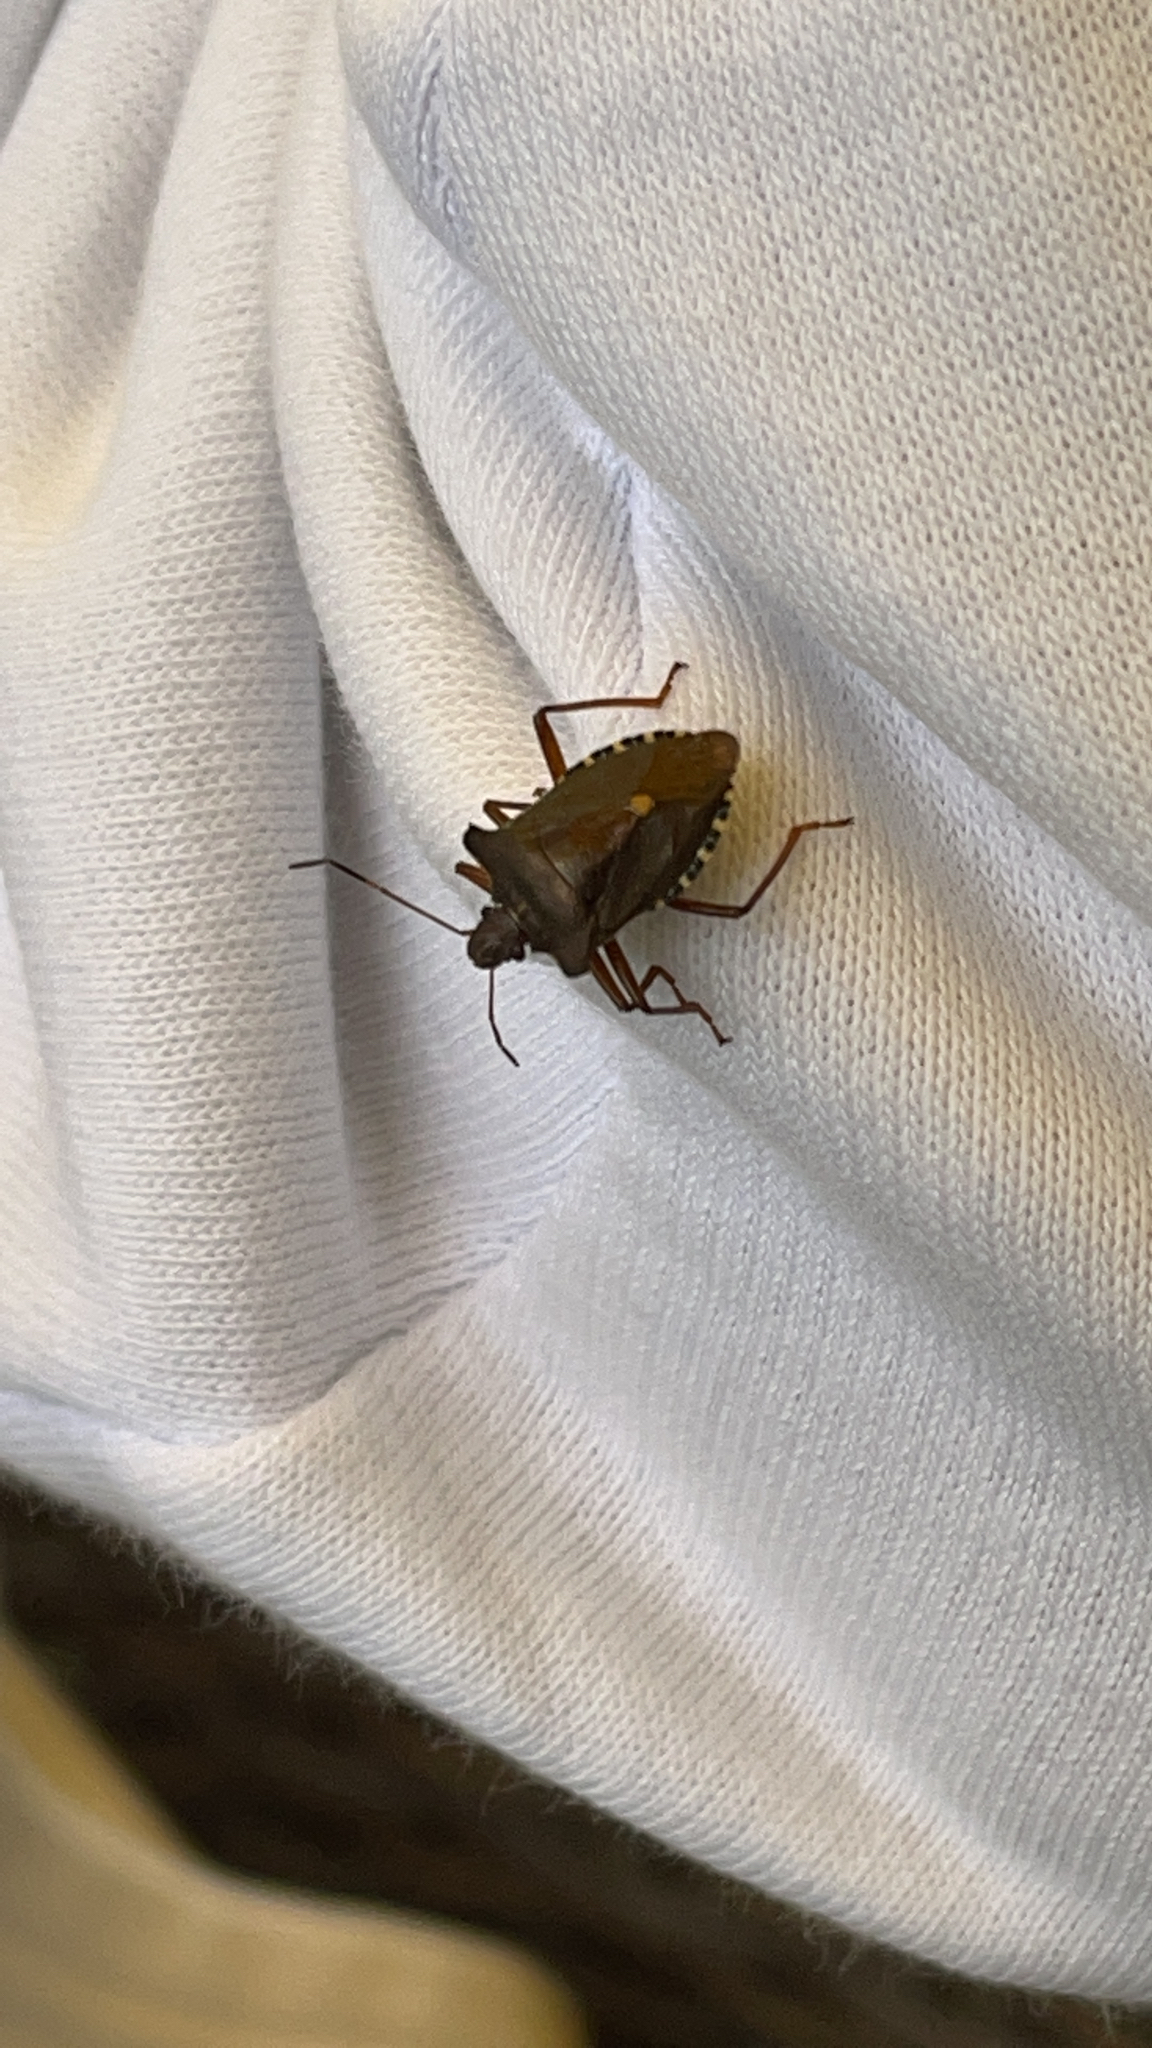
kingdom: Animalia
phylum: Arthropoda
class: Insecta
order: Hemiptera
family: Pentatomidae
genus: Pentatoma
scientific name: Pentatoma rufipes
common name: Forest bug
